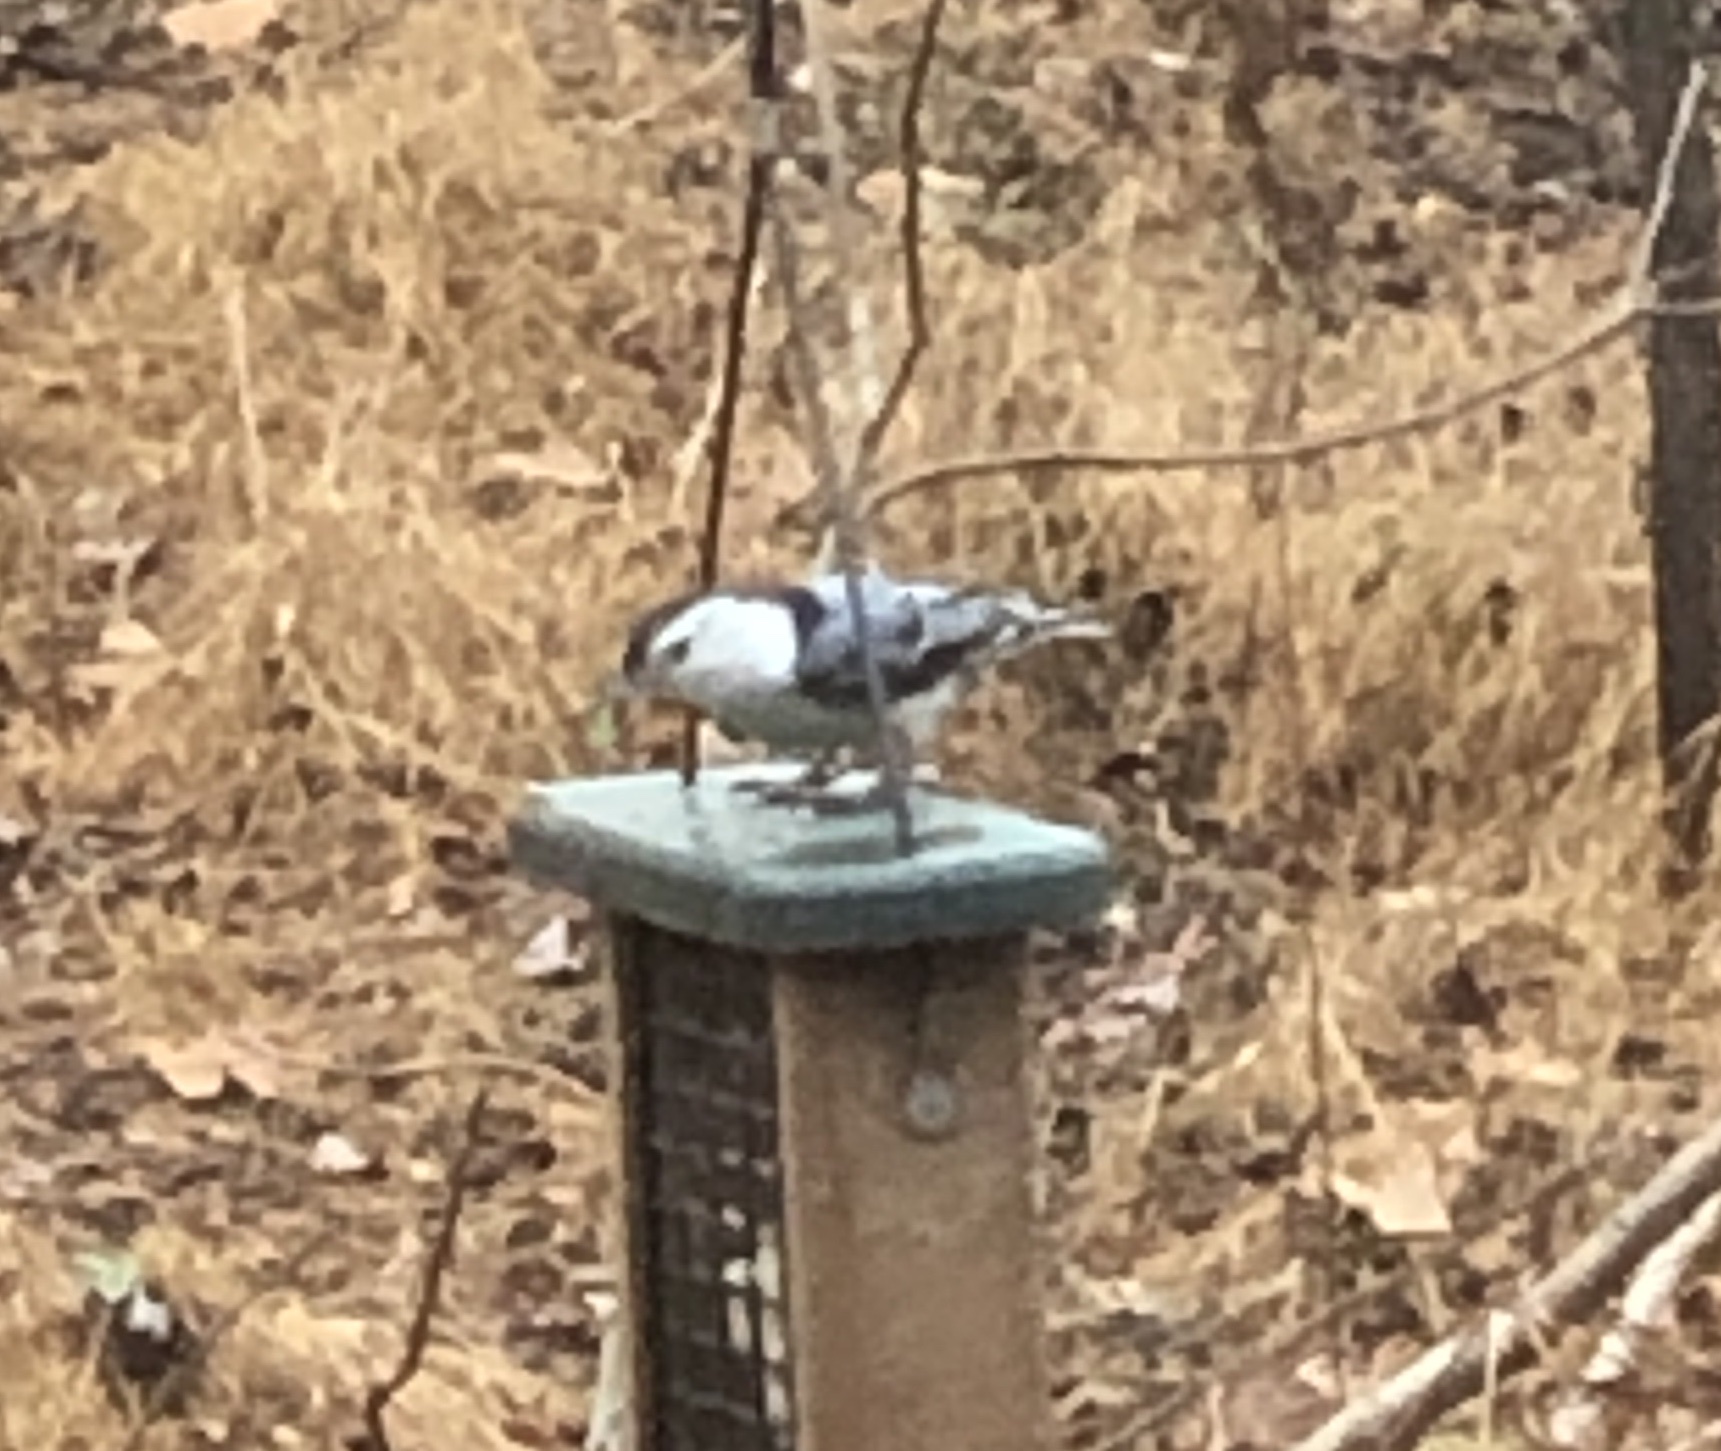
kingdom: Animalia
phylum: Chordata
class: Aves
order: Passeriformes
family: Sittidae
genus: Sitta
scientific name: Sitta carolinensis
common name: White-breasted nuthatch
